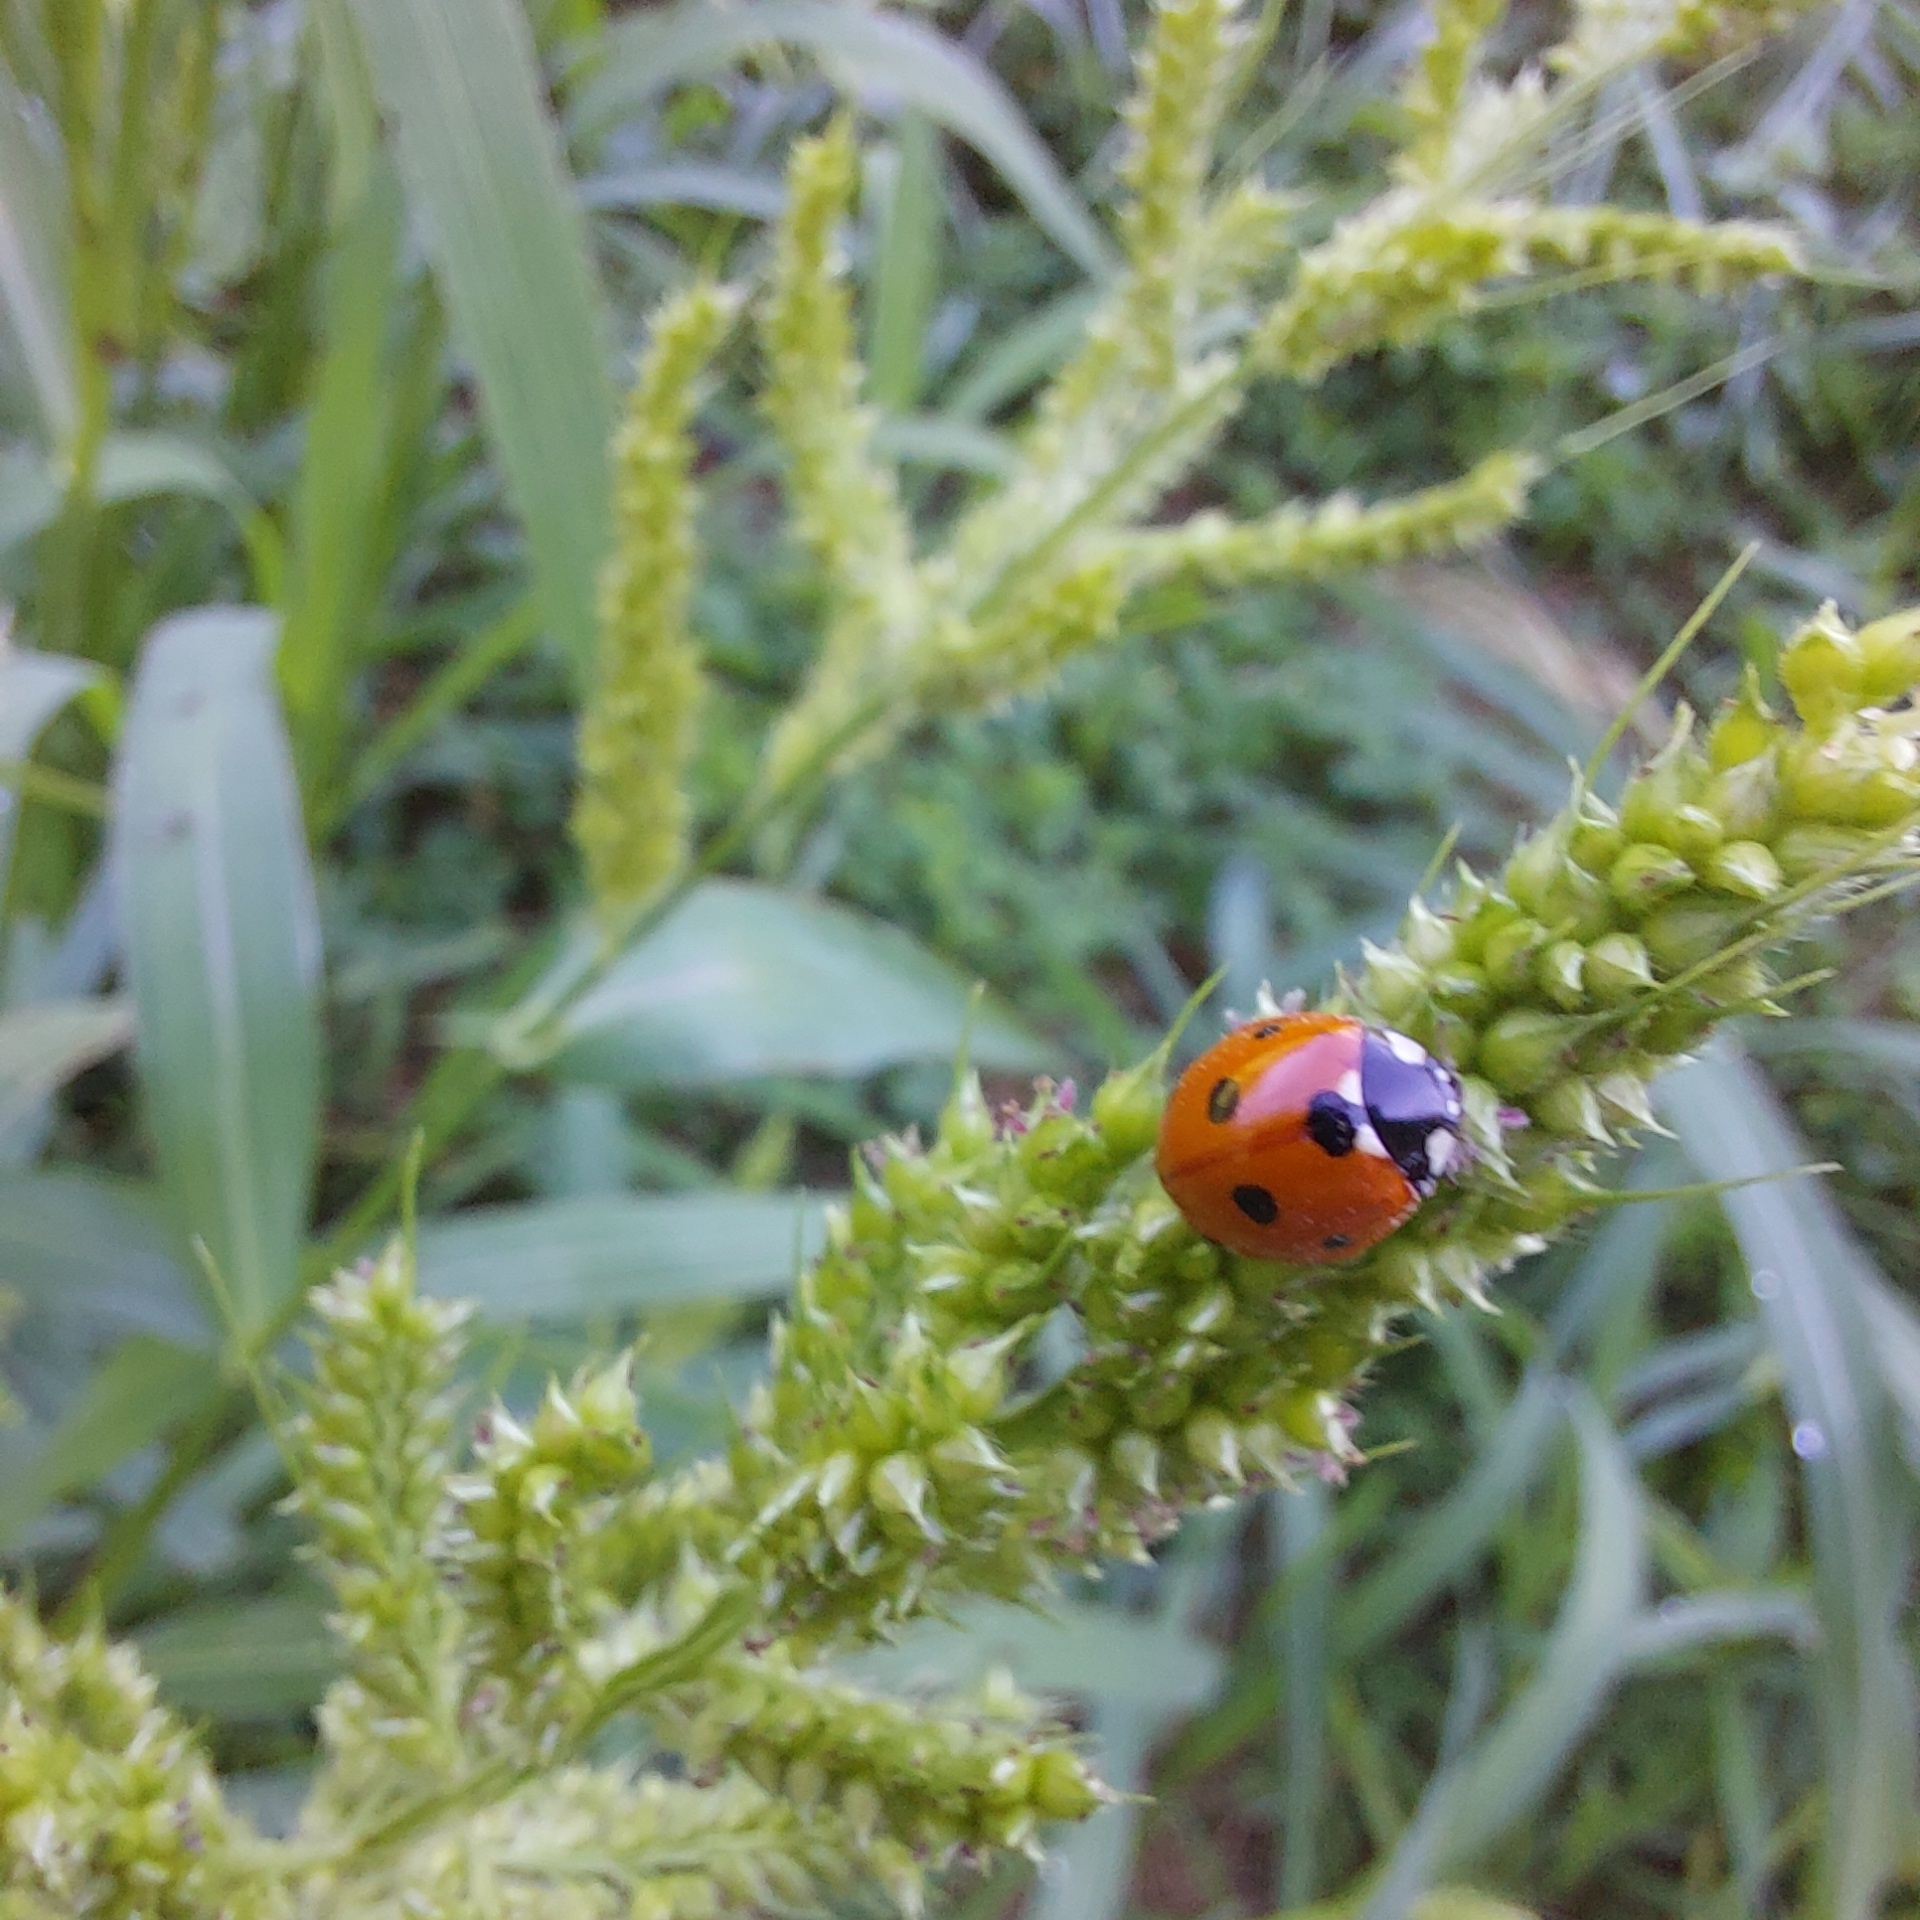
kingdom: Animalia
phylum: Arthropoda
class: Insecta
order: Coleoptera
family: Coccinellidae
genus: Coccinella
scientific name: Coccinella septempunctata
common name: Sevenspotted lady beetle
